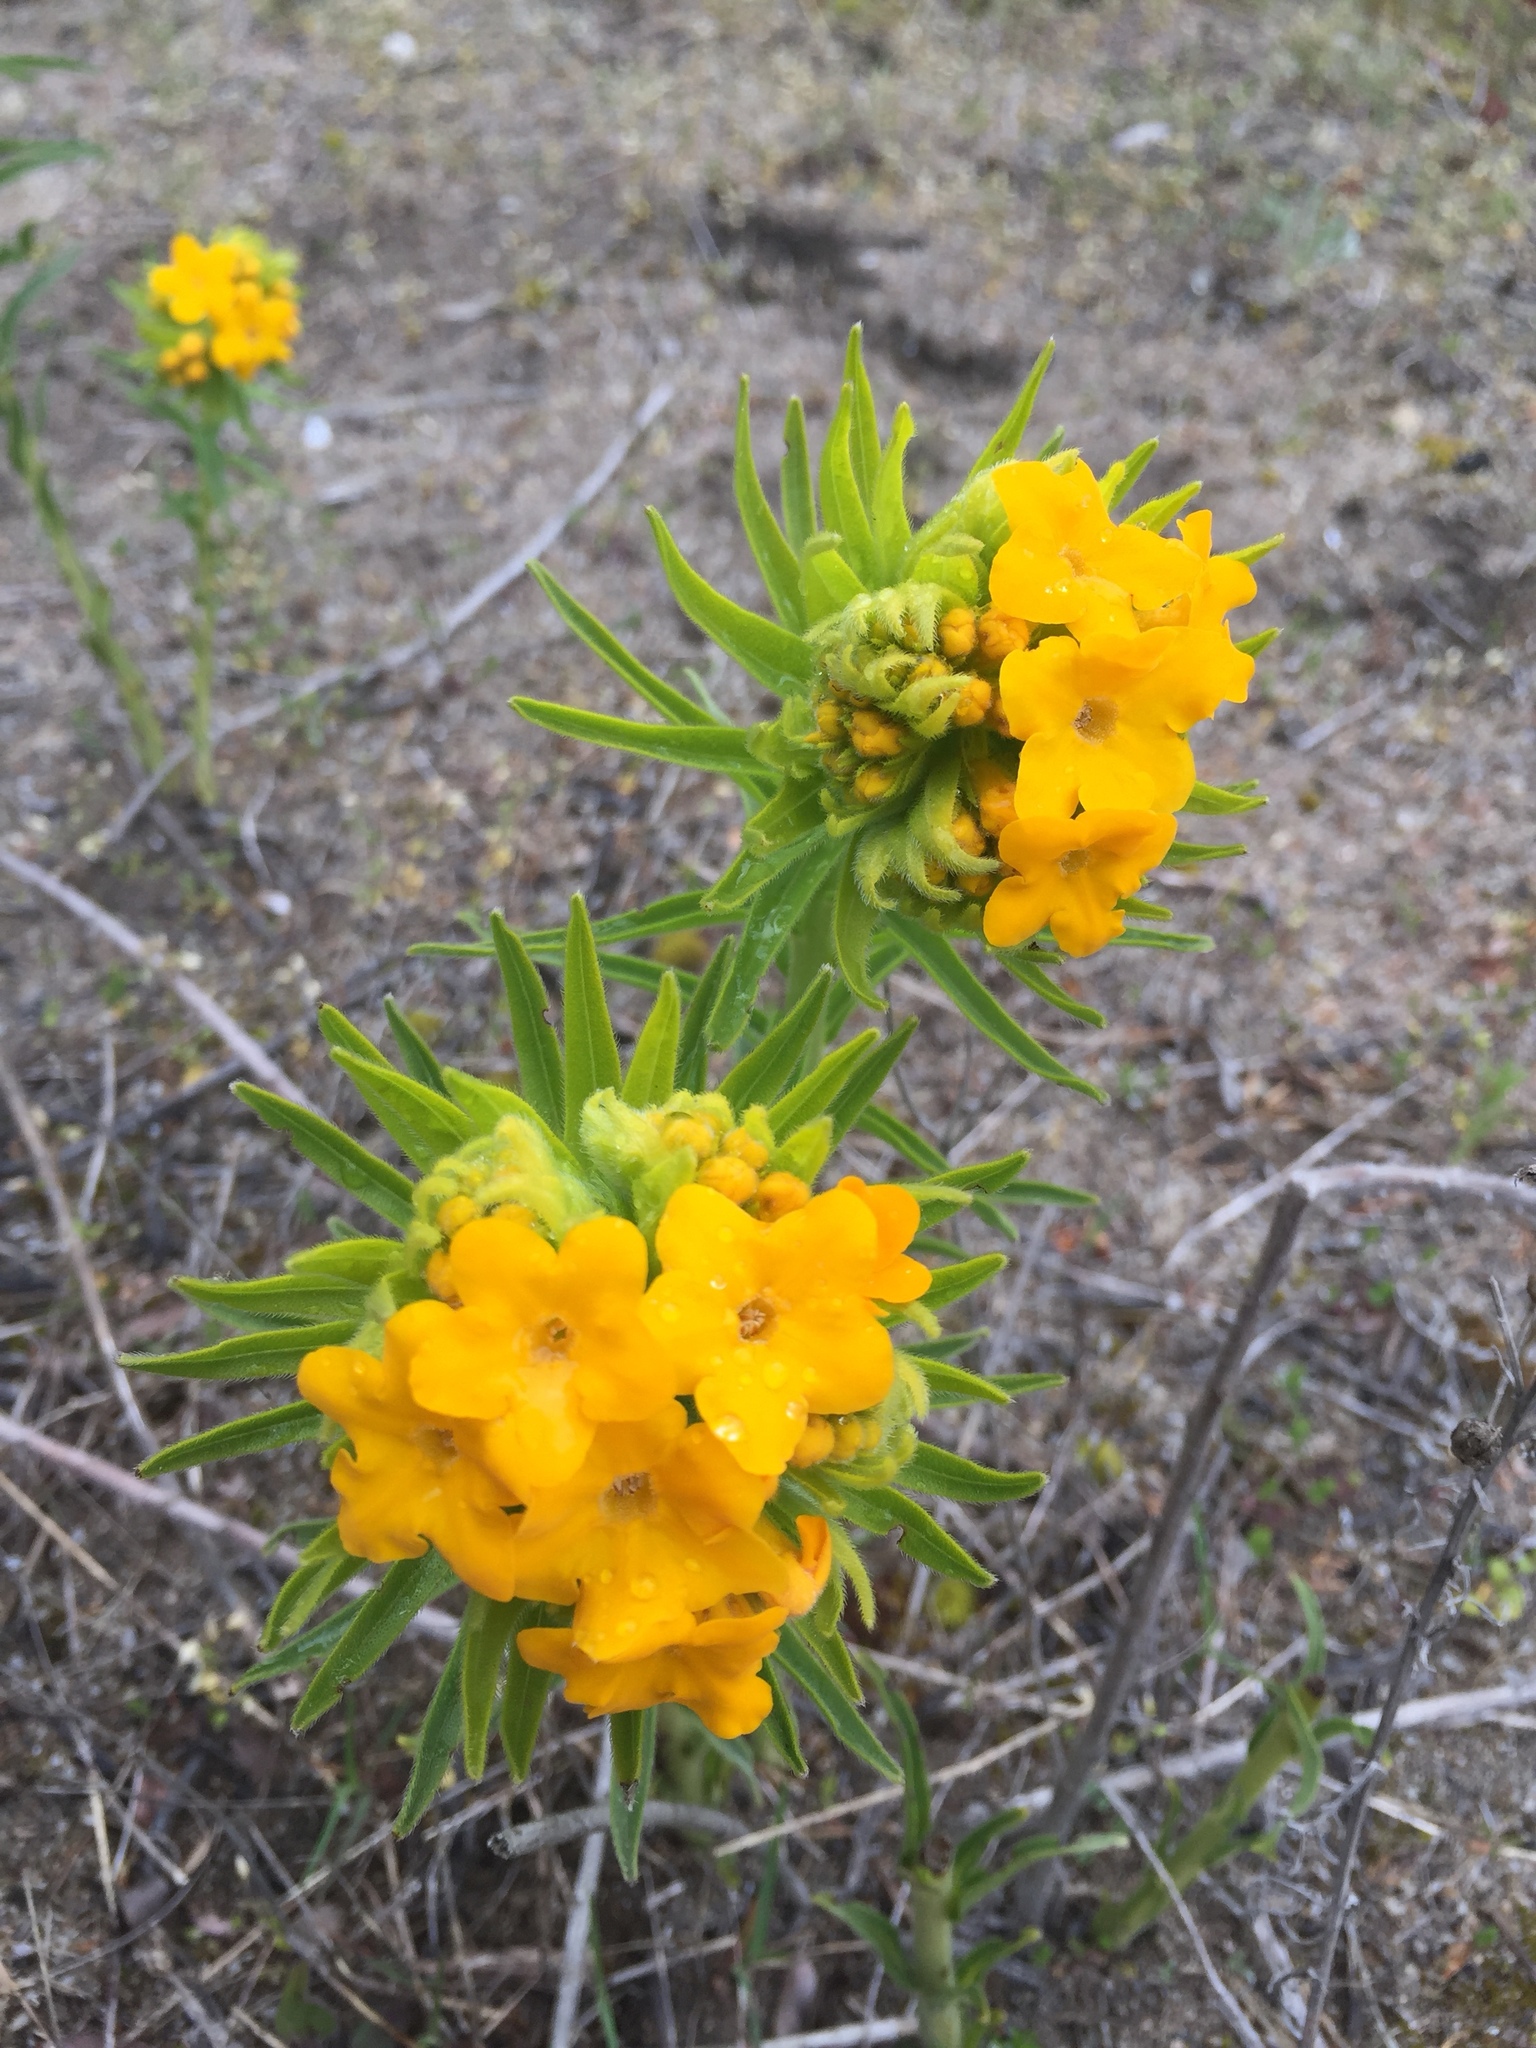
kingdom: Plantae
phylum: Tracheophyta
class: Magnoliopsida
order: Boraginales
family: Boraginaceae
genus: Lithospermum
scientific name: Lithospermum caroliniense
